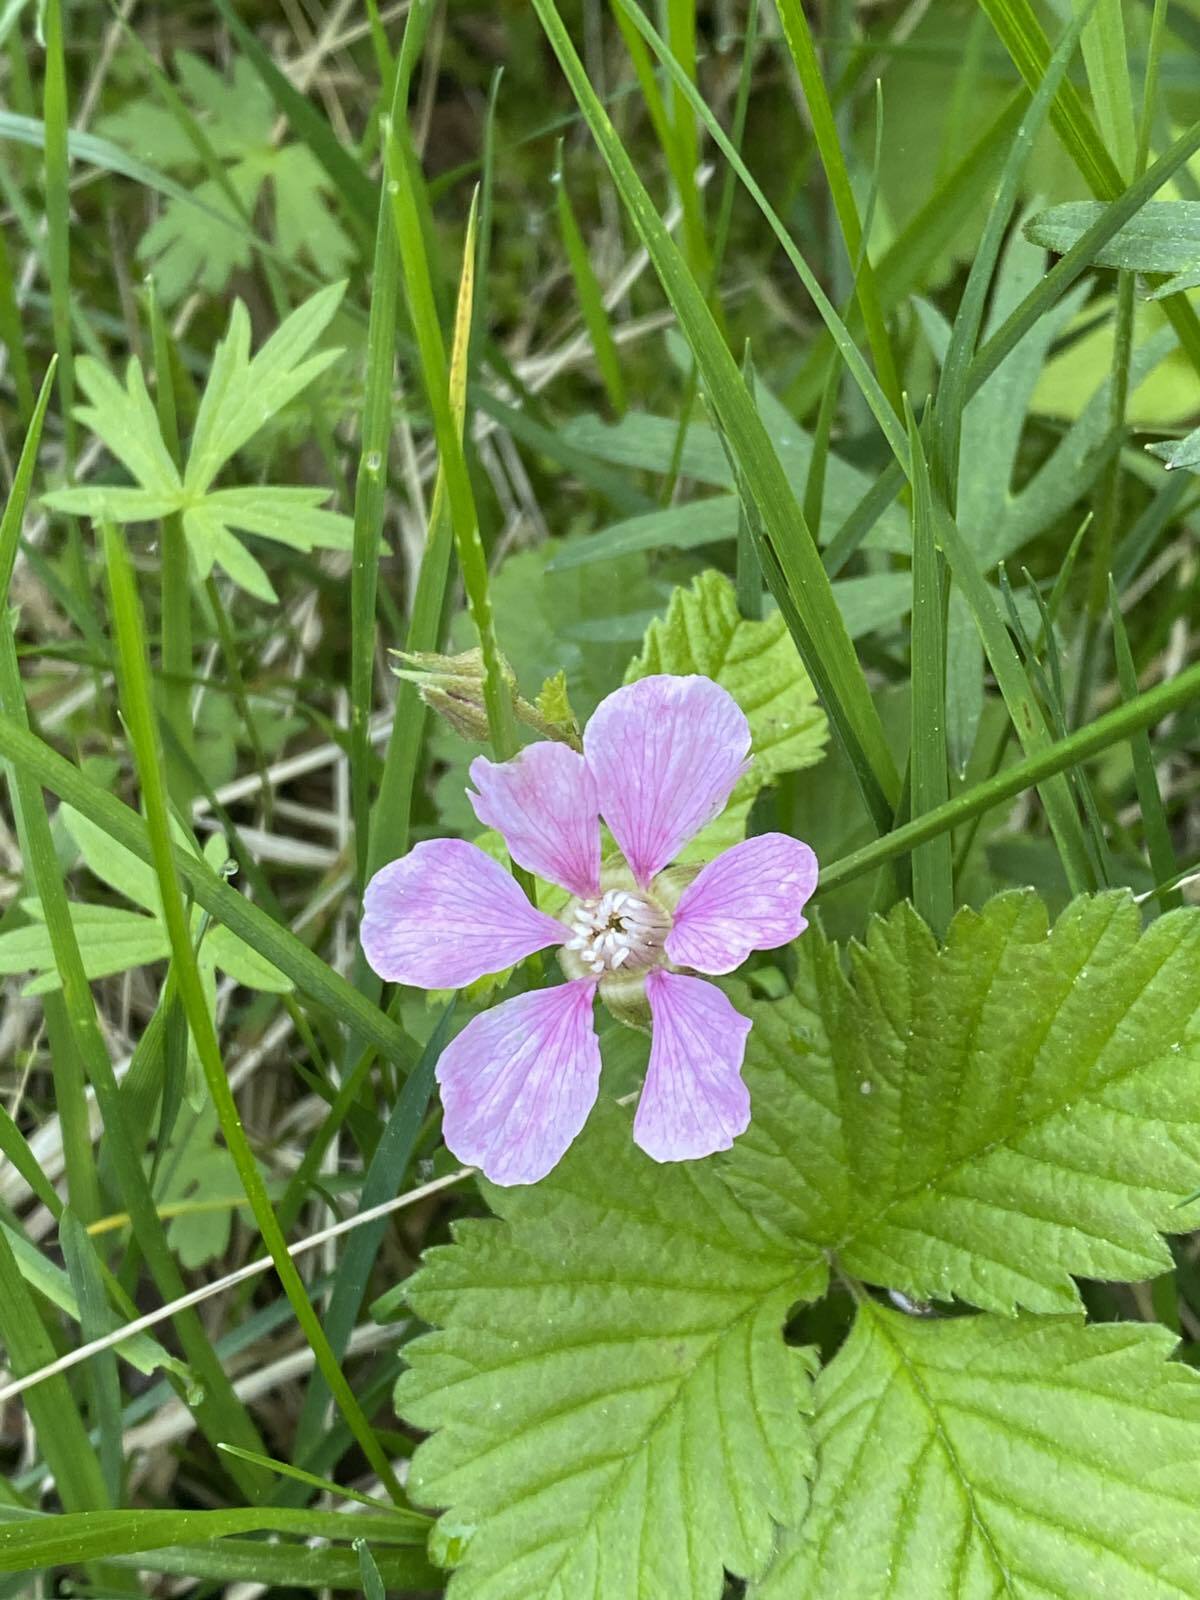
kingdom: Plantae
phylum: Tracheophyta
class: Magnoliopsida
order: Rosales
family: Rosaceae
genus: Rubus
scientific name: Rubus arcticus
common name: Arctic bramble
